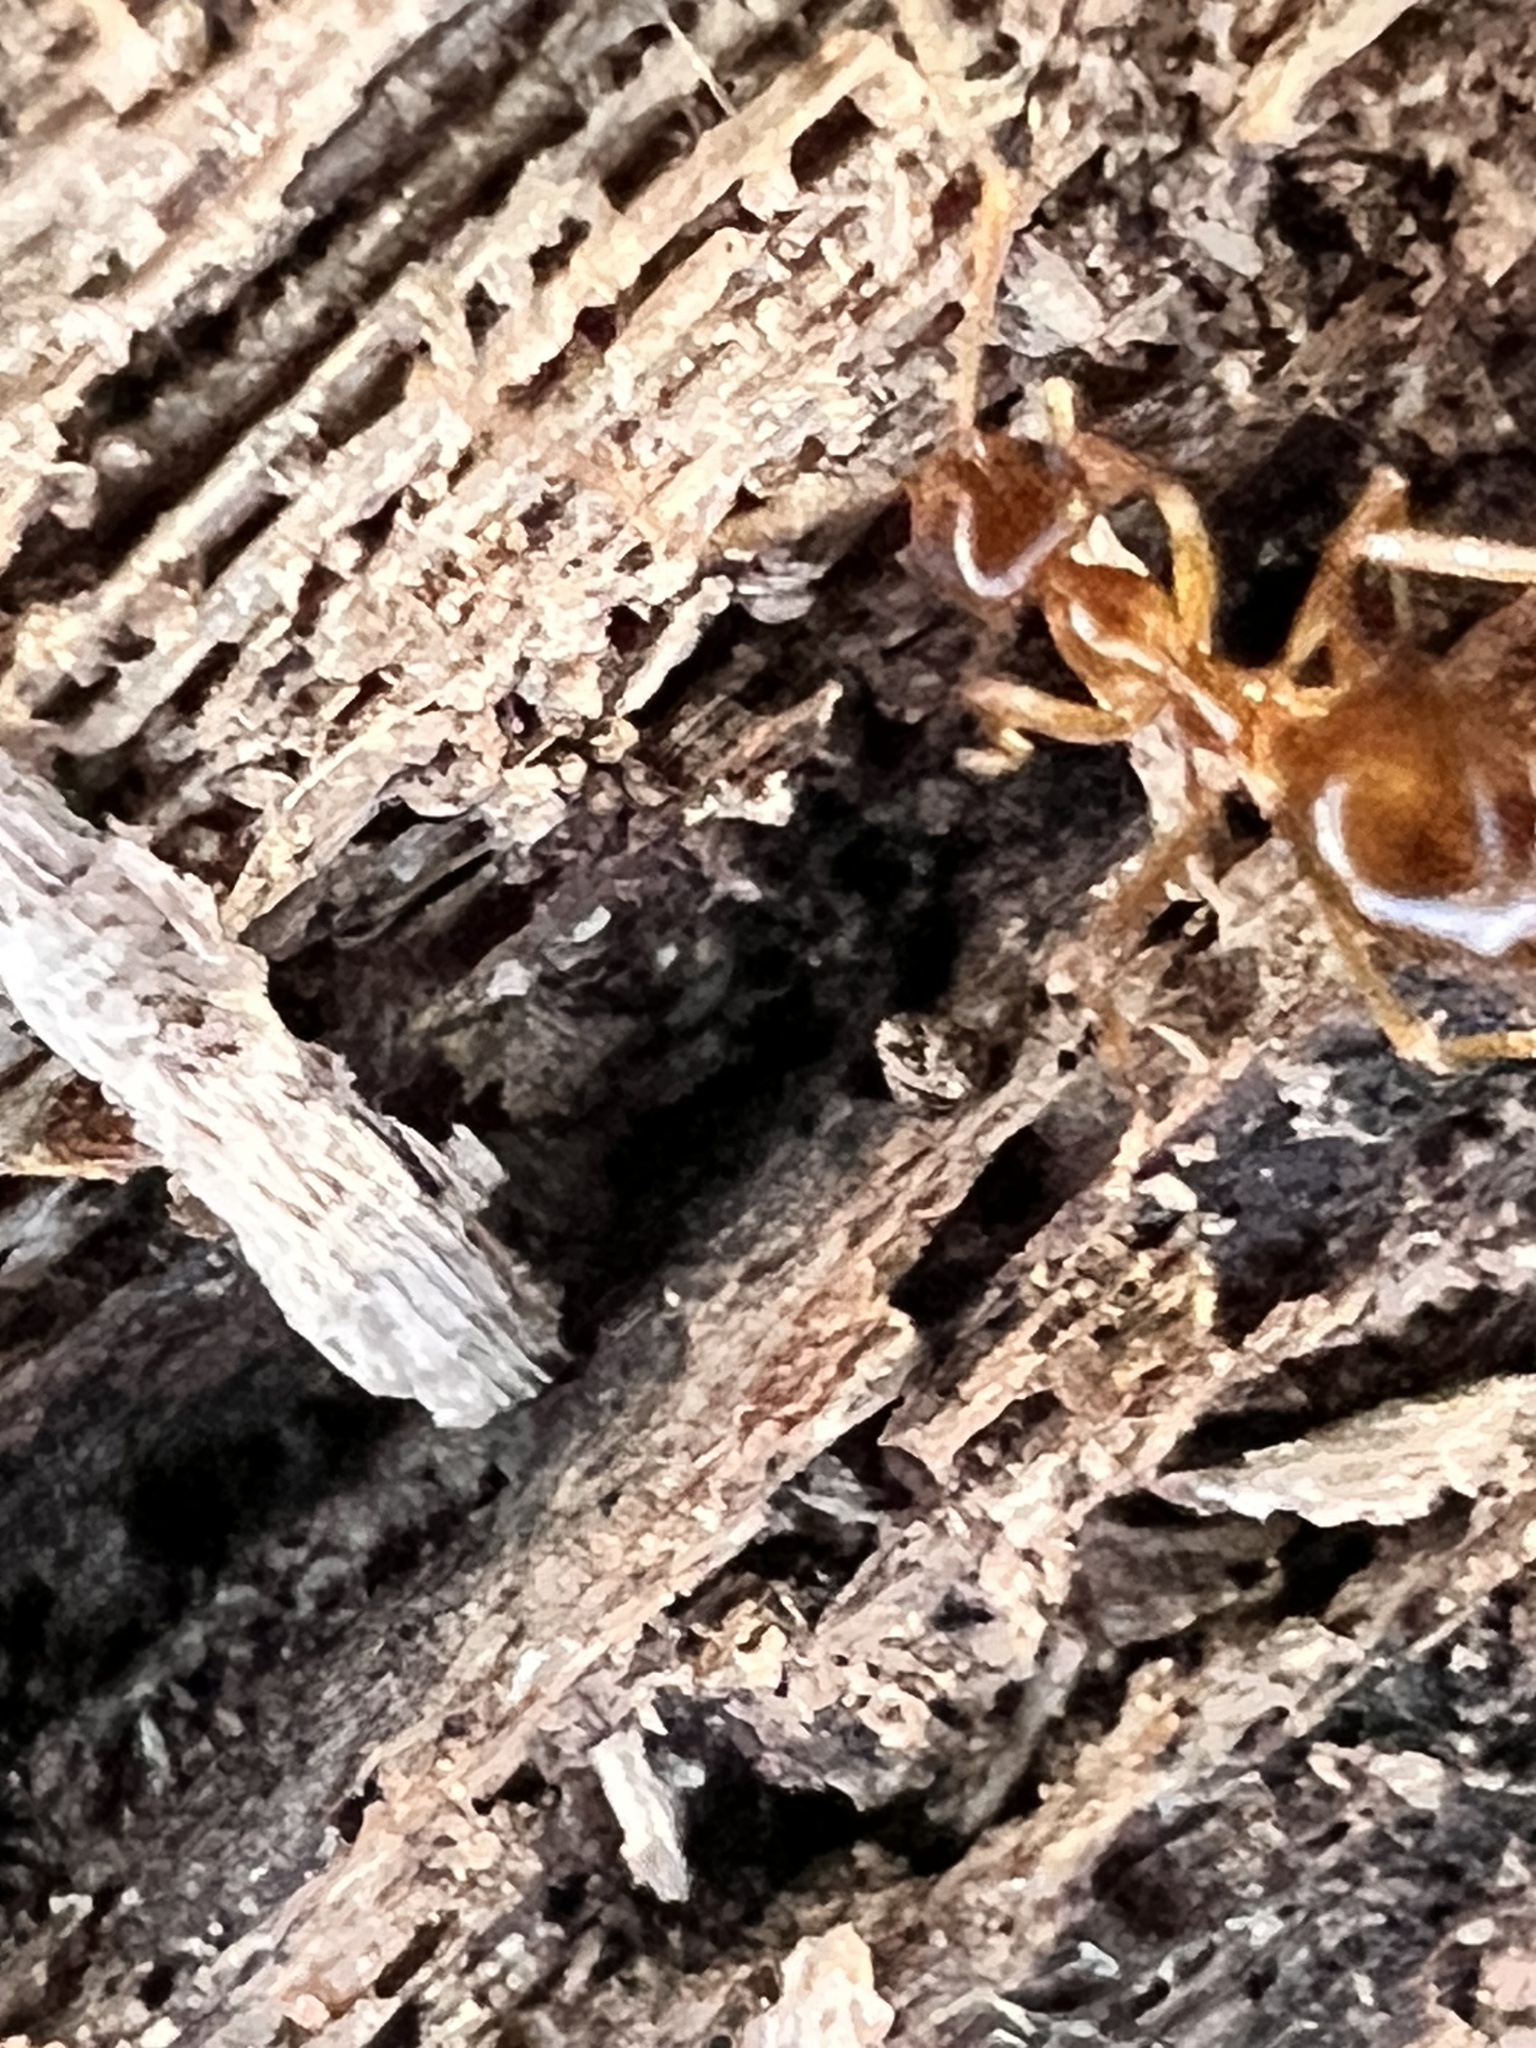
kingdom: Animalia
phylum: Arthropoda
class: Insecta
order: Hymenoptera
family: Formicidae
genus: Prenolepis
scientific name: Prenolepis imparis
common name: Small honey ant
